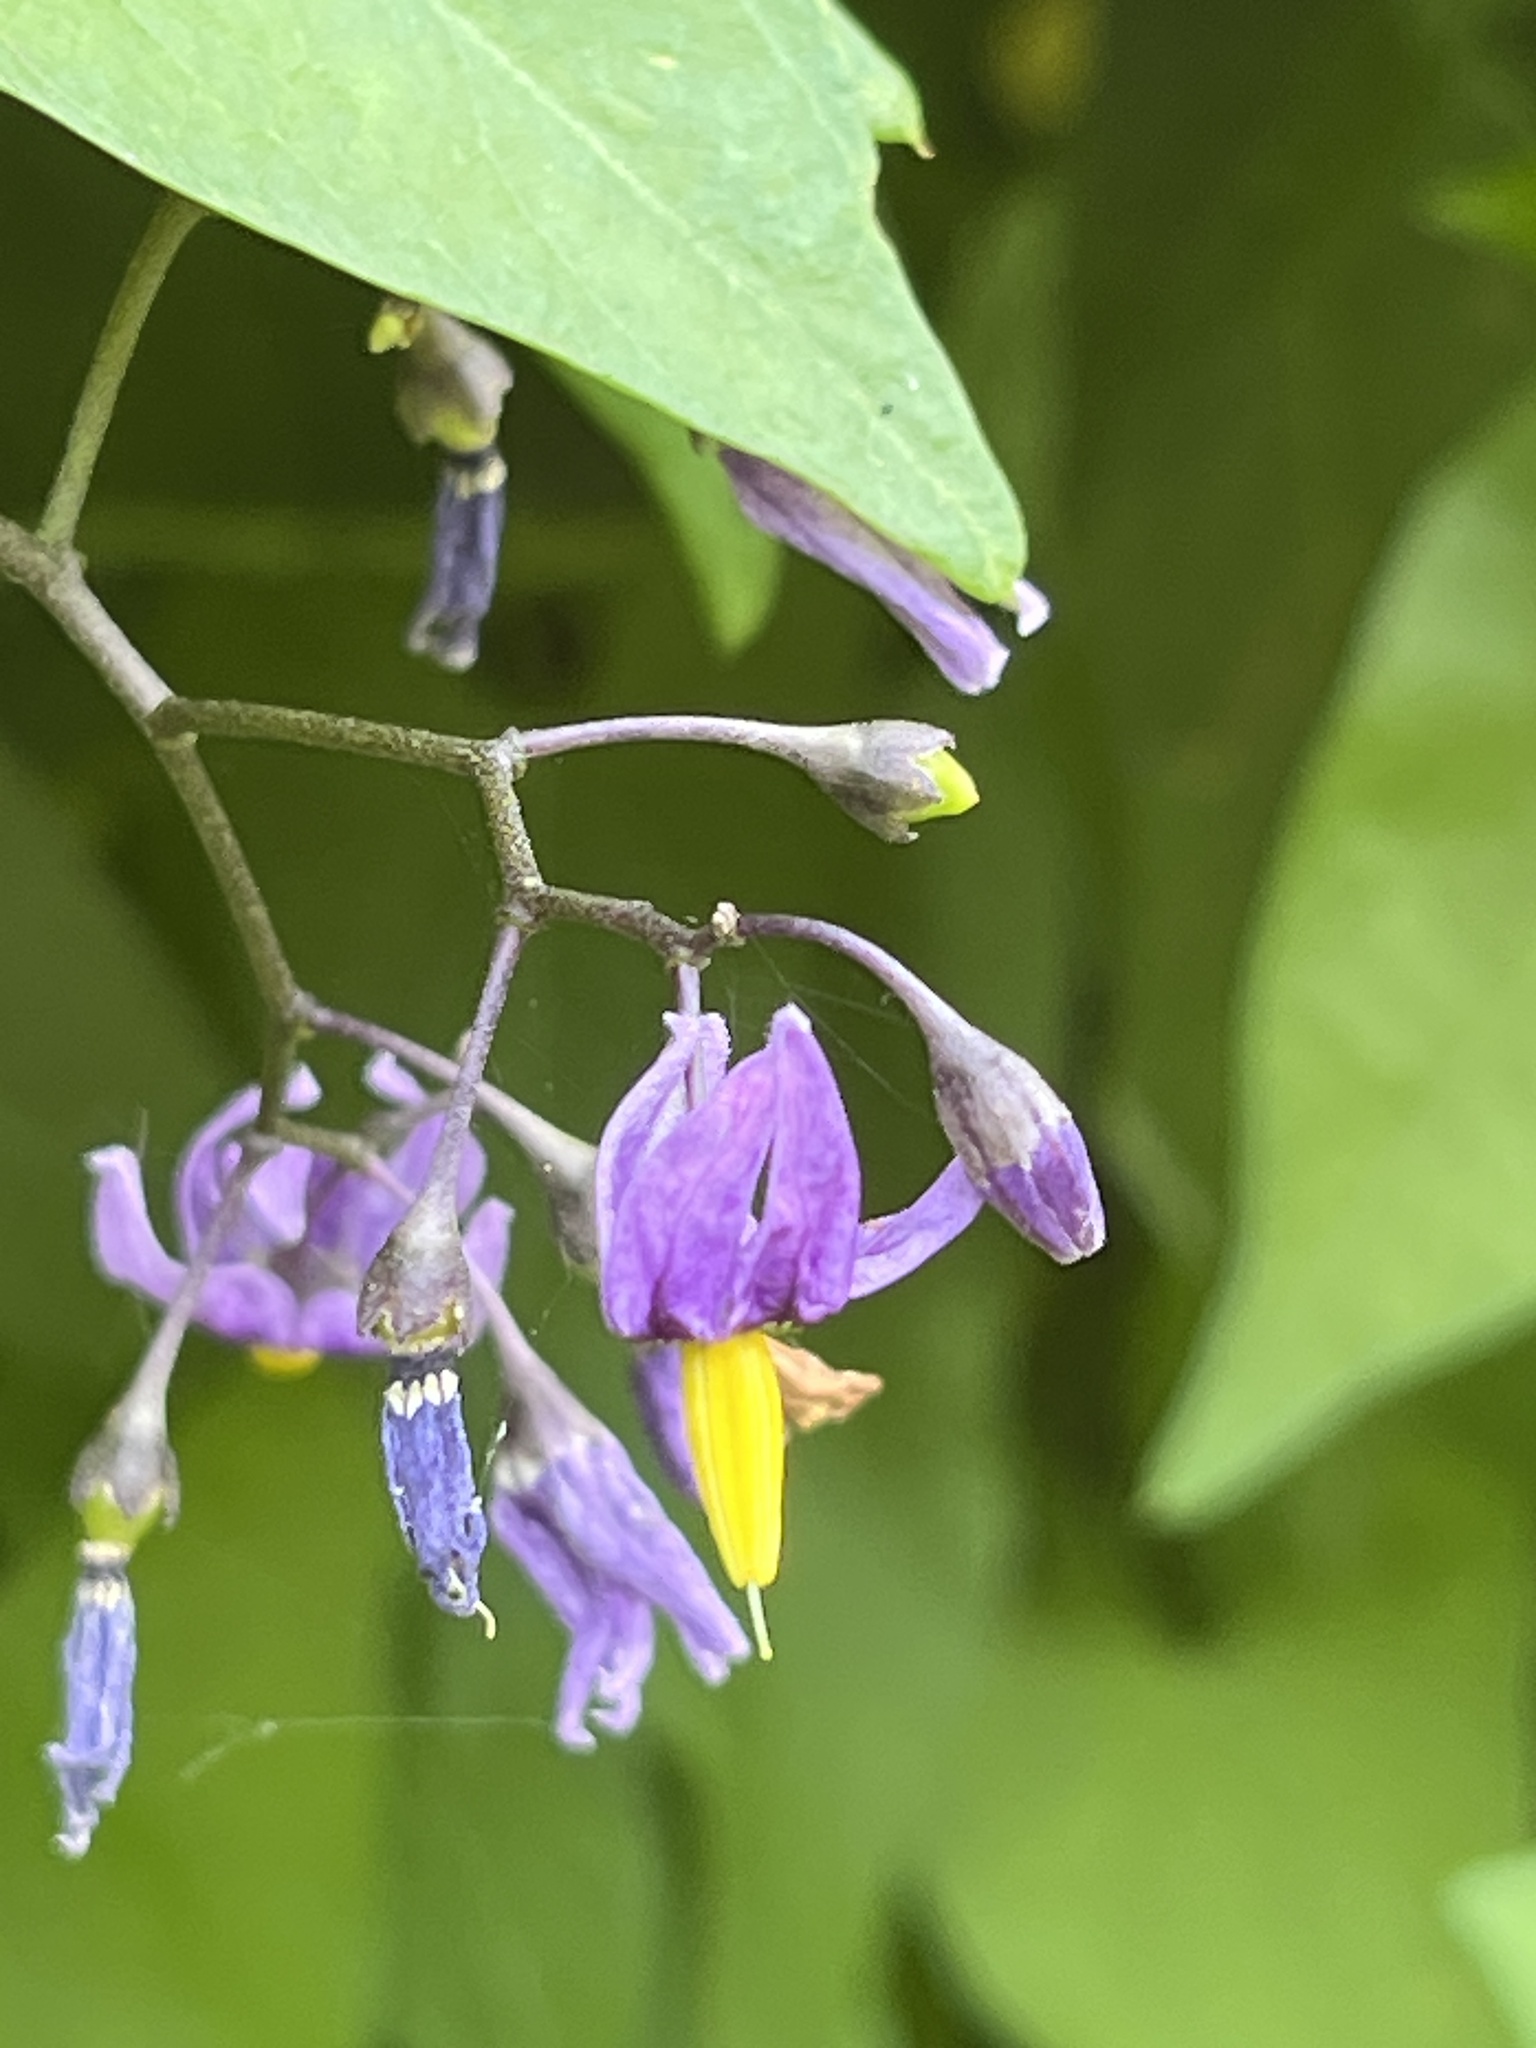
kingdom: Plantae
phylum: Tracheophyta
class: Magnoliopsida
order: Solanales
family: Solanaceae
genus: Solanum
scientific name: Solanum dulcamara
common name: Climbing nightshade
